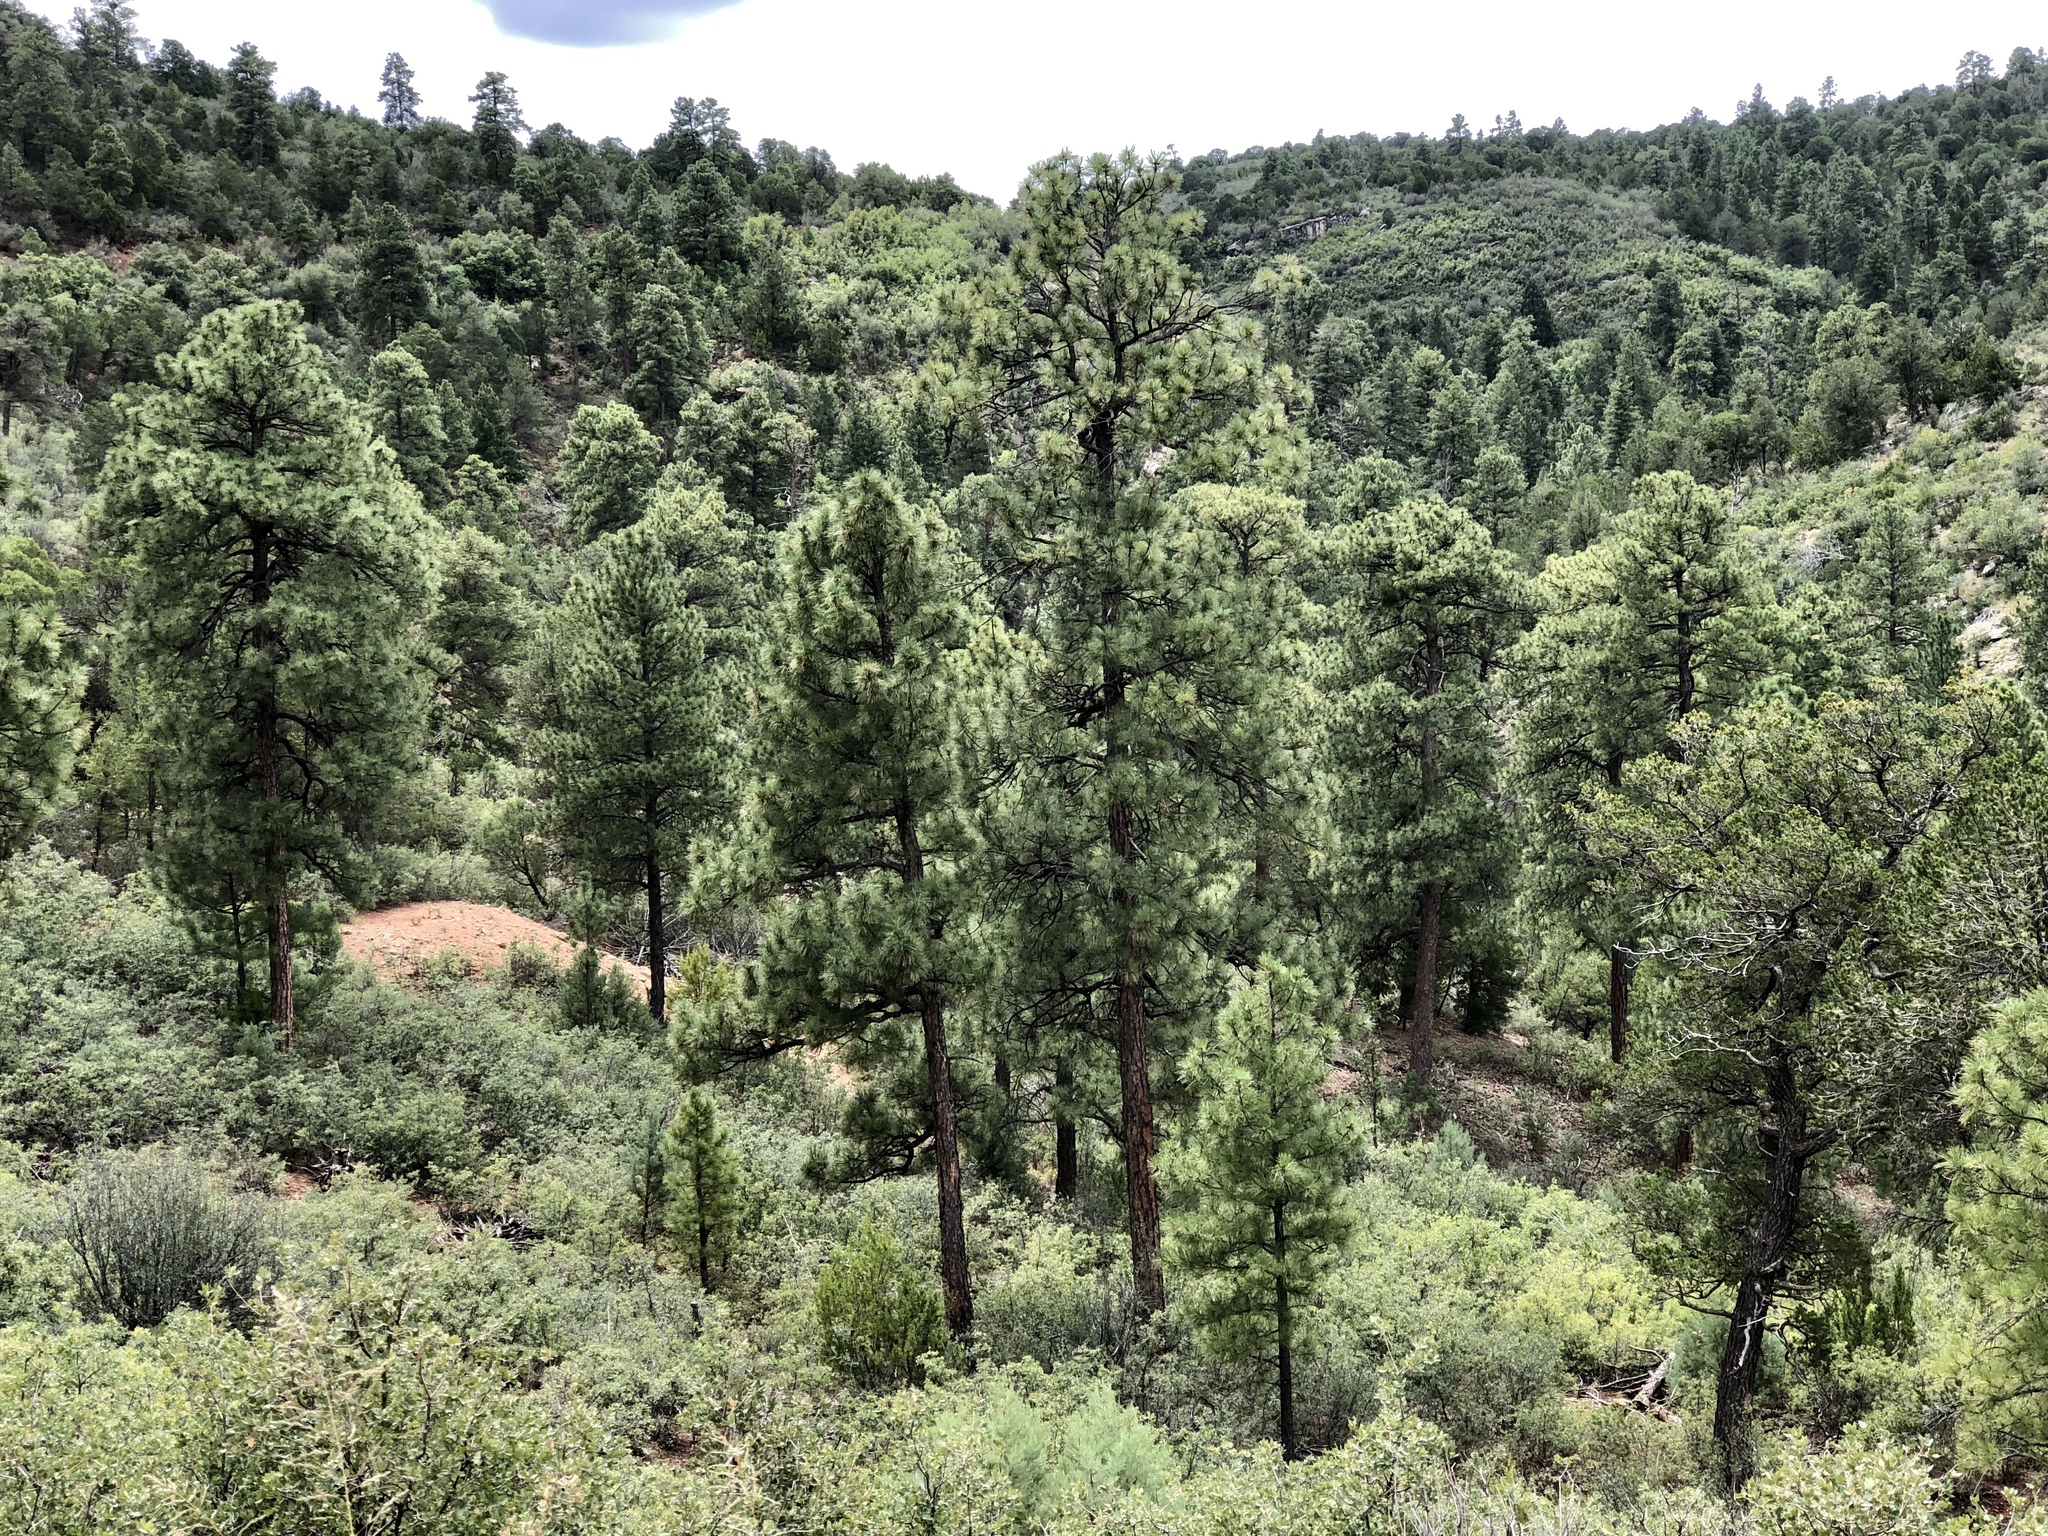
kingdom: Plantae
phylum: Tracheophyta
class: Pinopsida
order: Pinales
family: Pinaceae
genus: Pinus
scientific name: Pinus ponderosa
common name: Western yellow-pine
